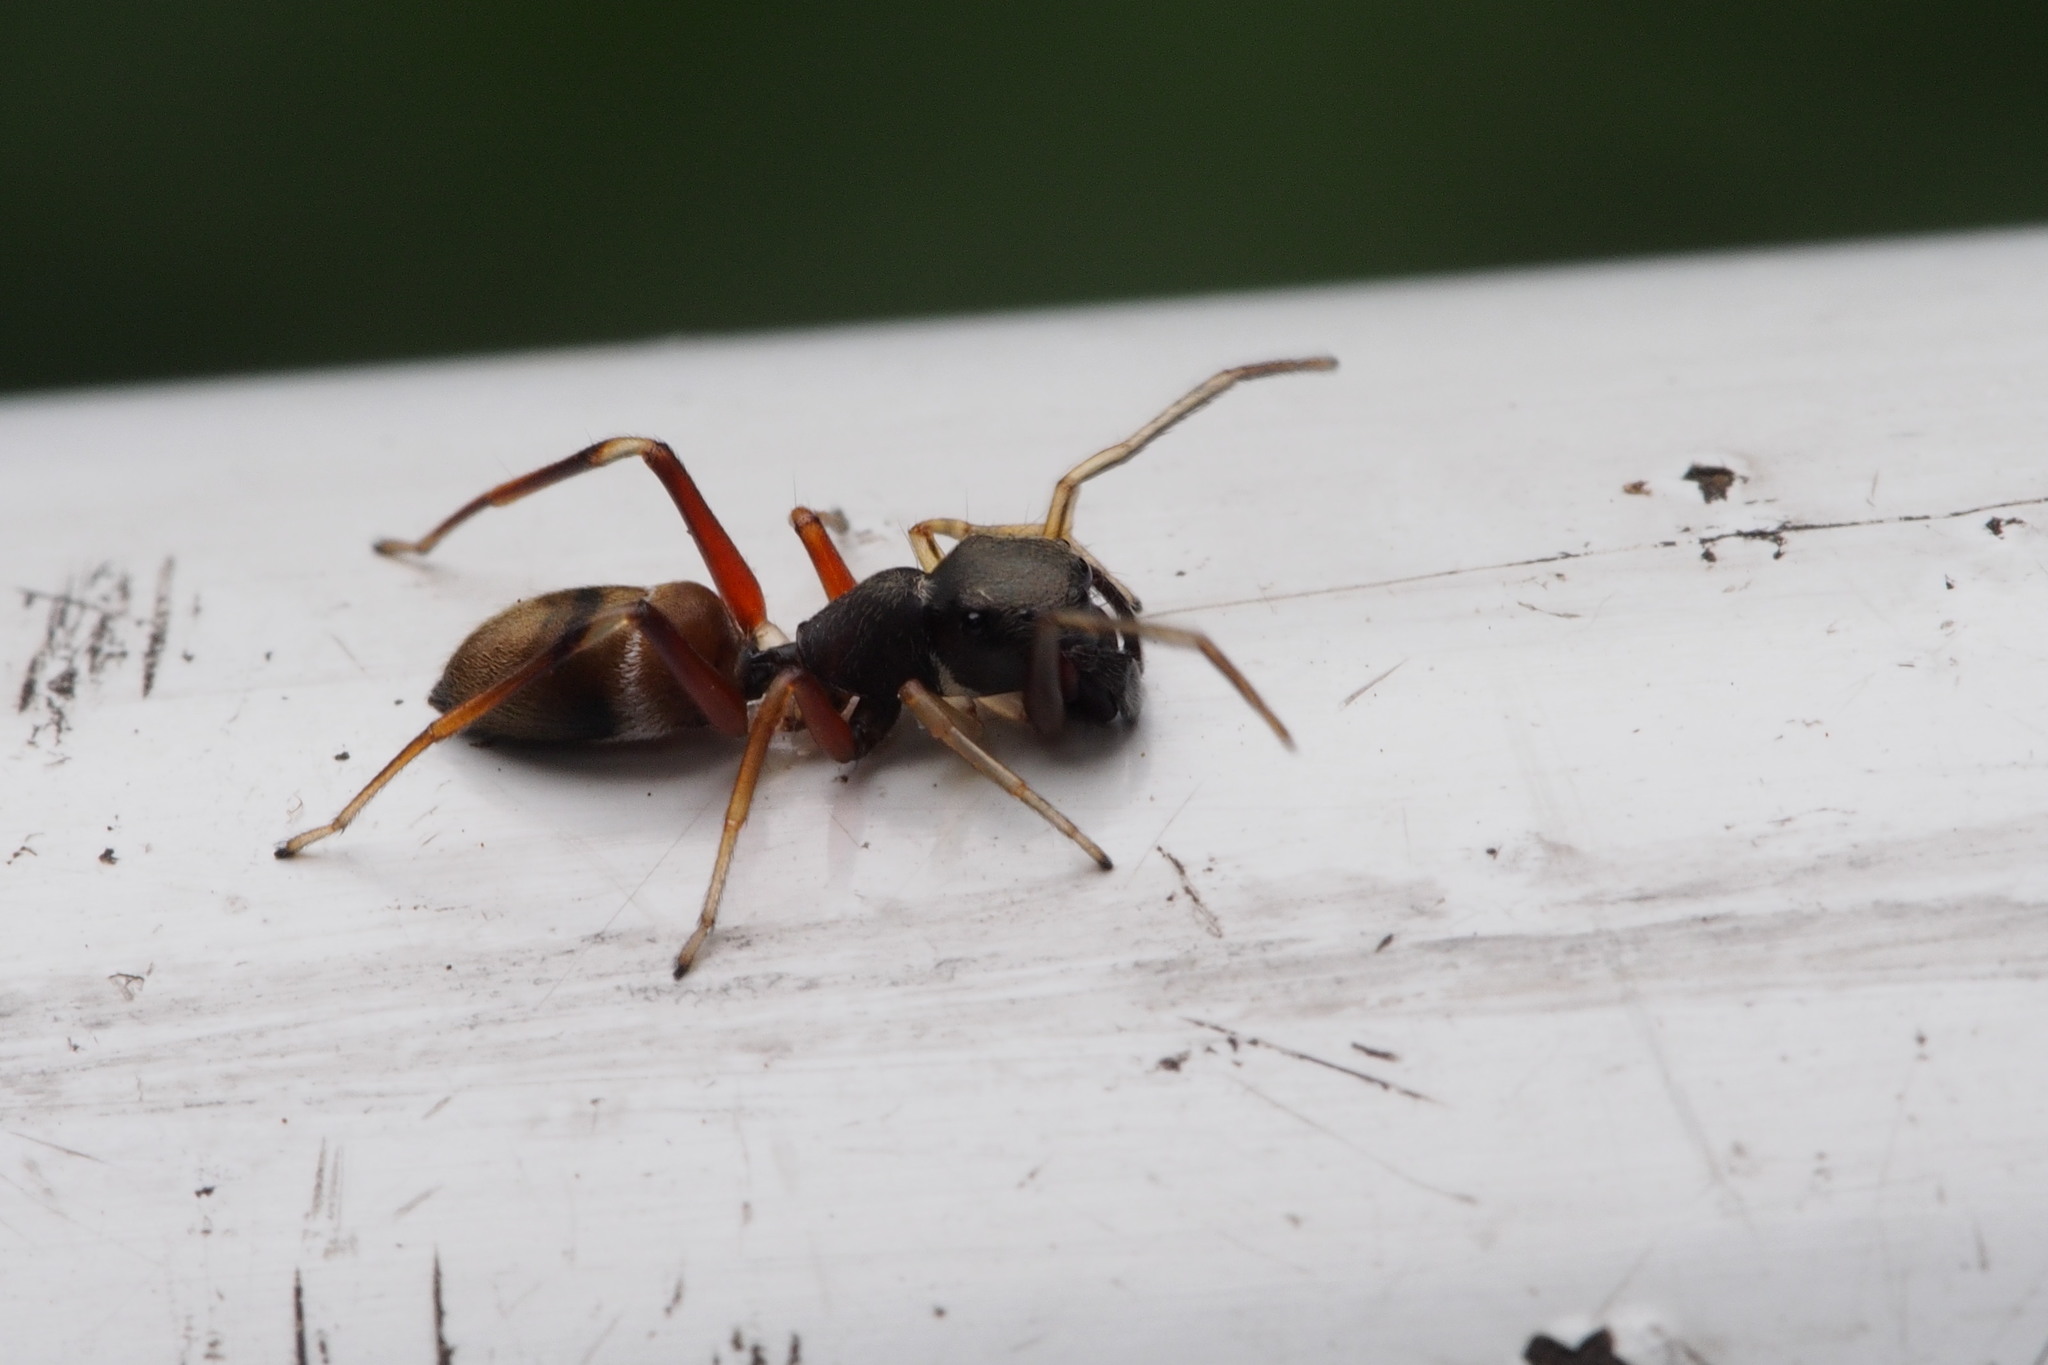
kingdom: Animalia
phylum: Arthropoda
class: Arachnida
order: Araneae
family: Salticidae
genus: Myrmarachne
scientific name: Myrmarachne japonica
